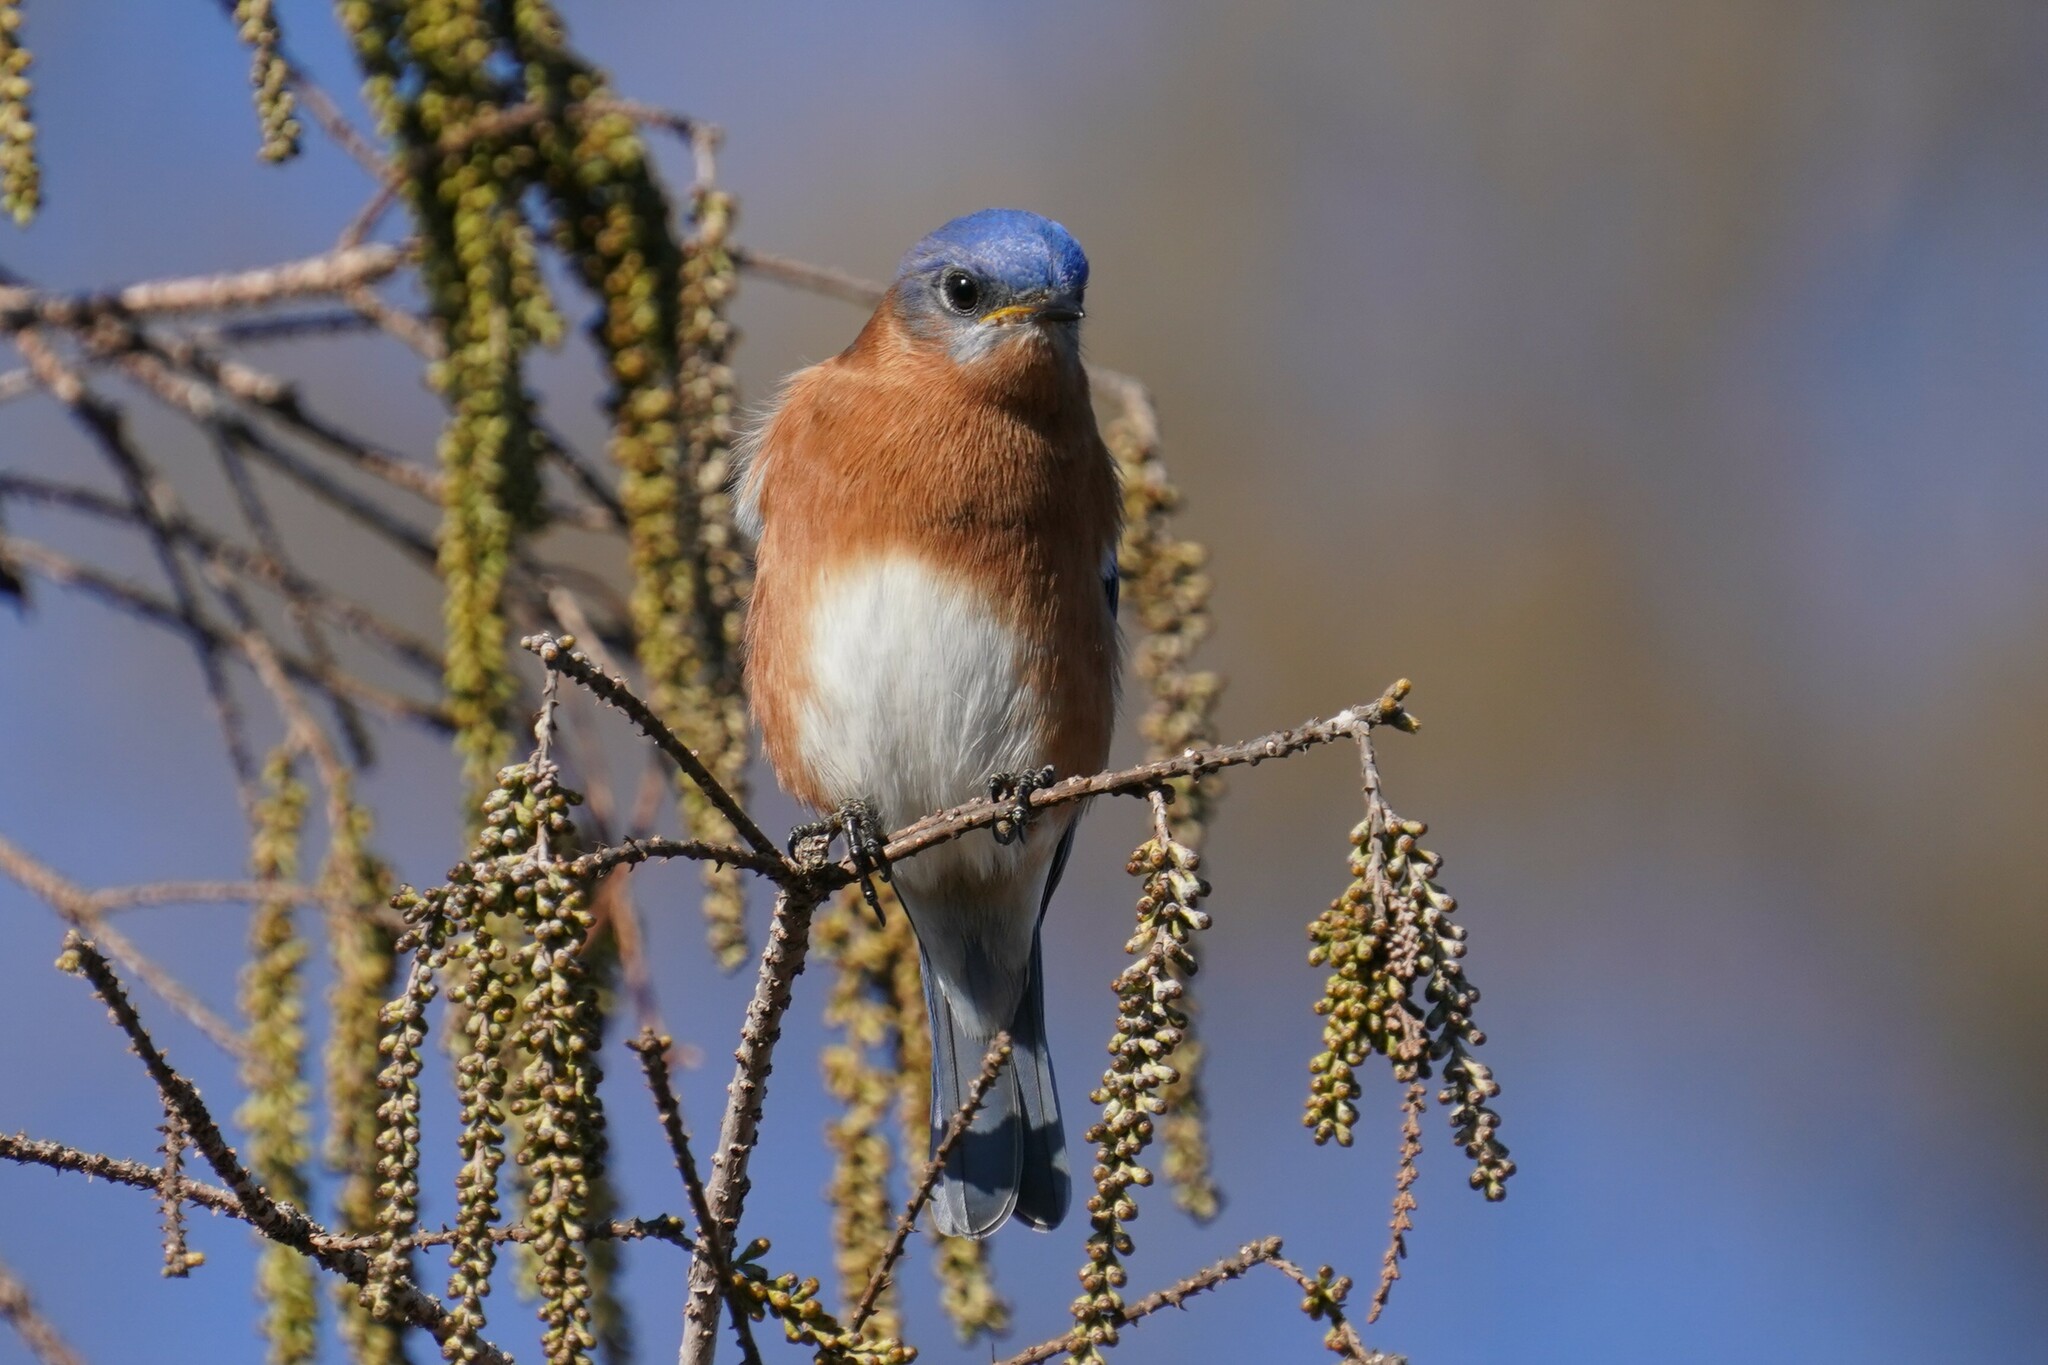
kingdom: Animalia
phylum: Chordata
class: Aves
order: Passeriformes
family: Turdidae
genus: Sialia
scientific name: Sialia sialis
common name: Eastern bluebird
